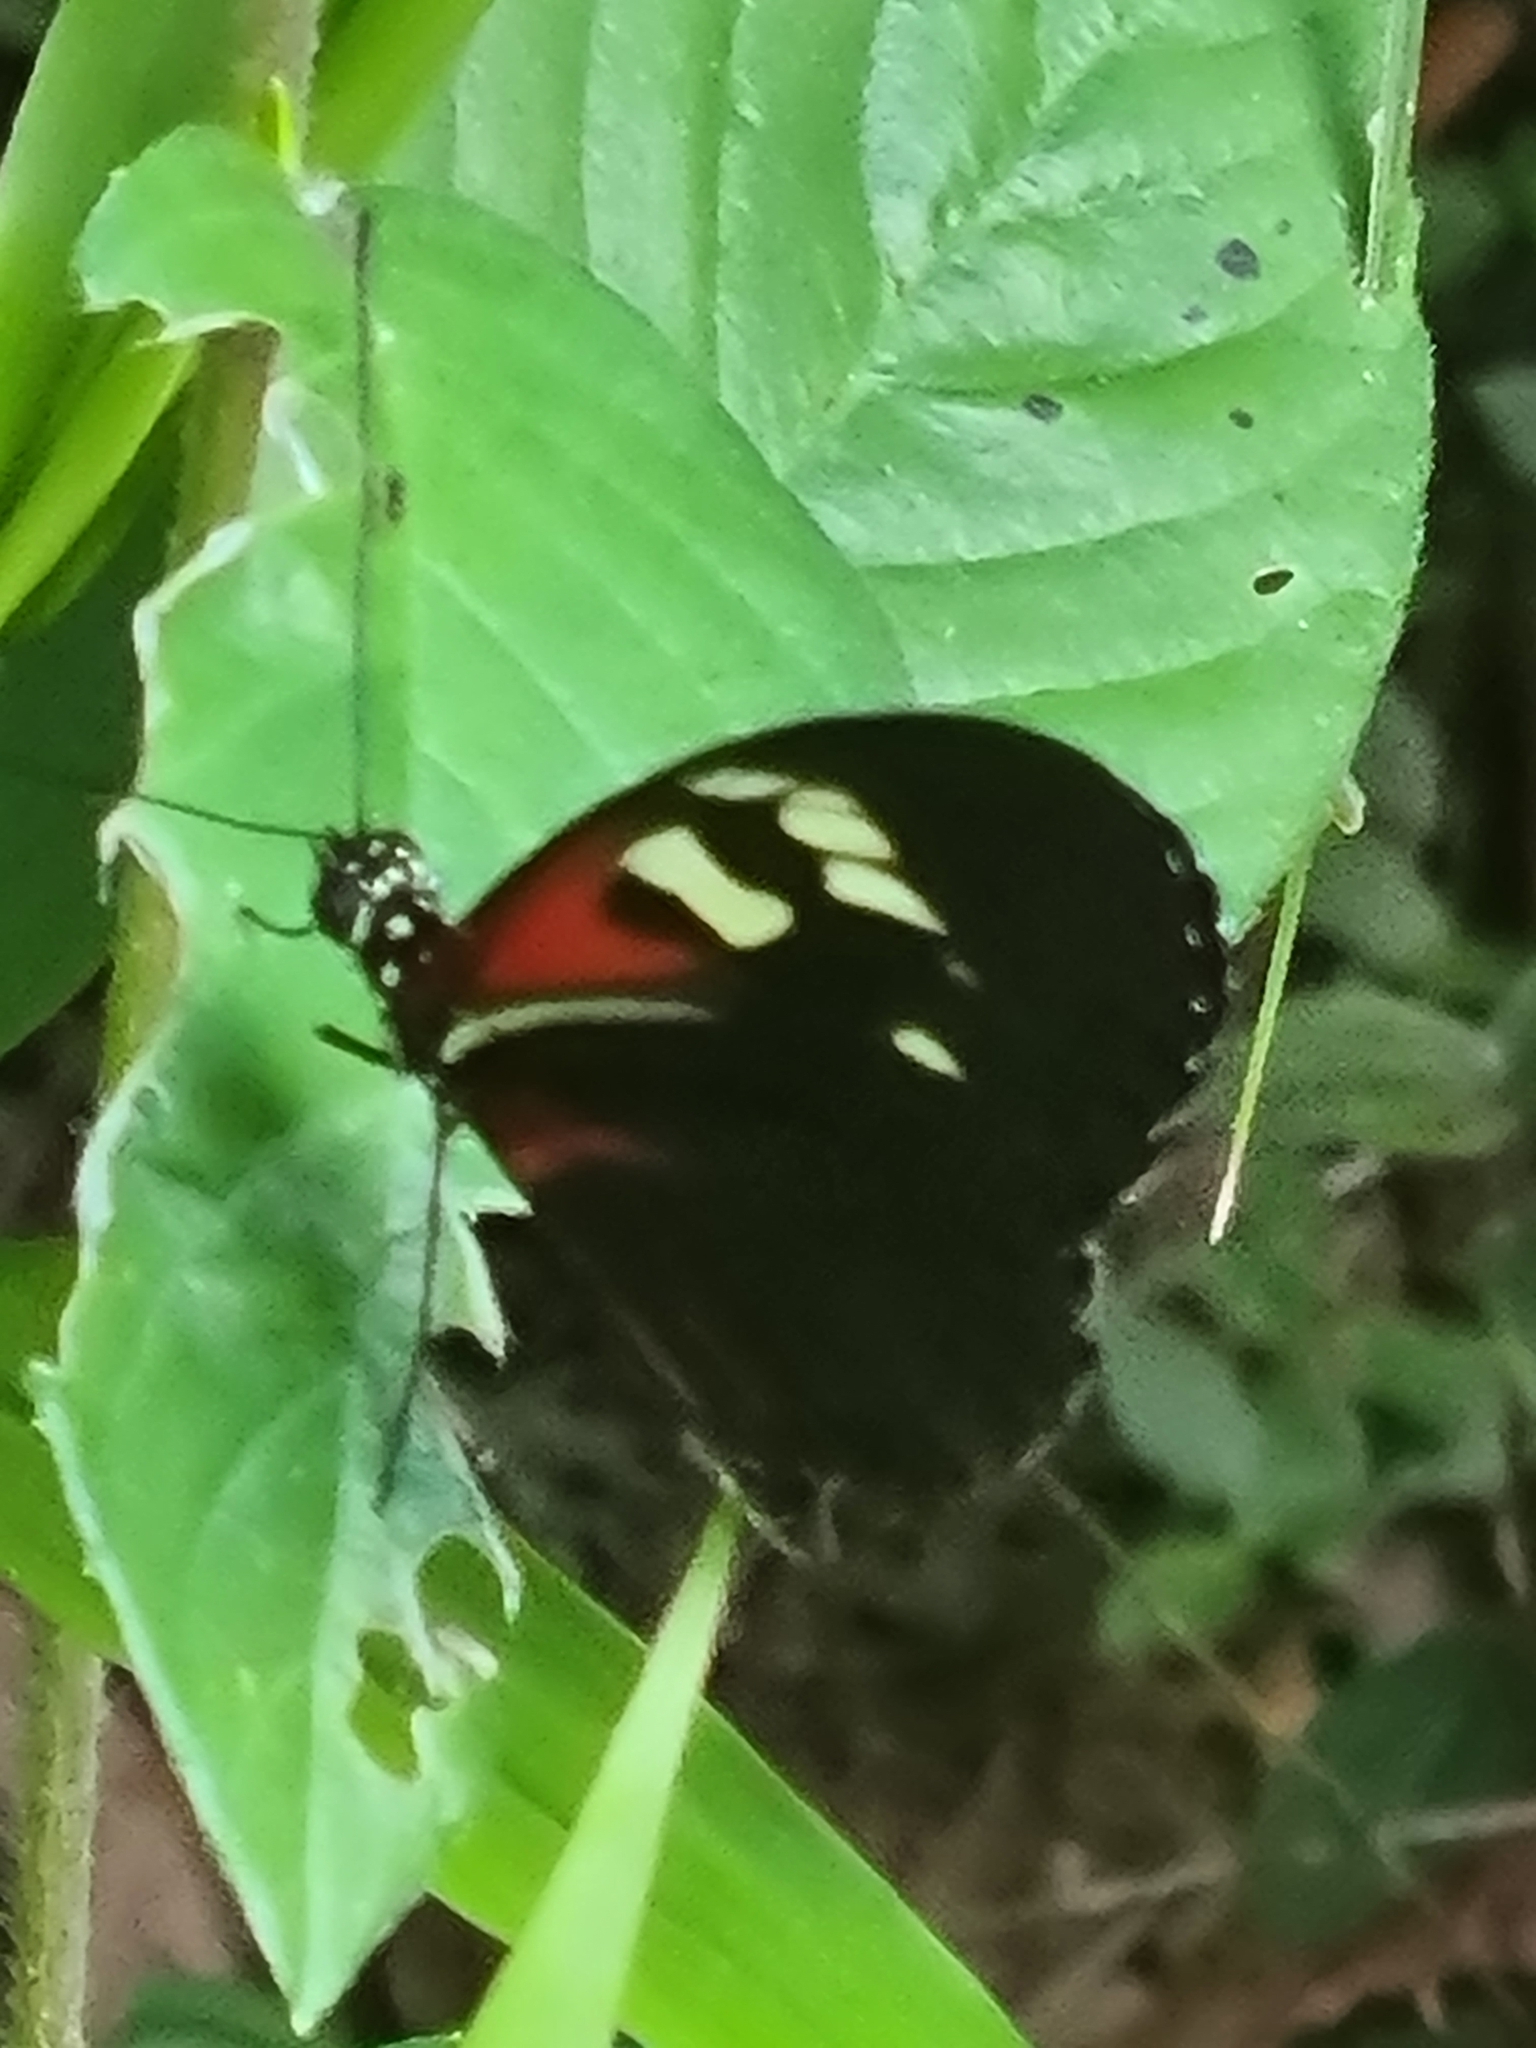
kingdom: Animalia
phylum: Arthropoda
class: Insecta
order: Lepidoptera
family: Nymphalidae
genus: Heliconius
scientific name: Heliconius melpomene
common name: Postman
